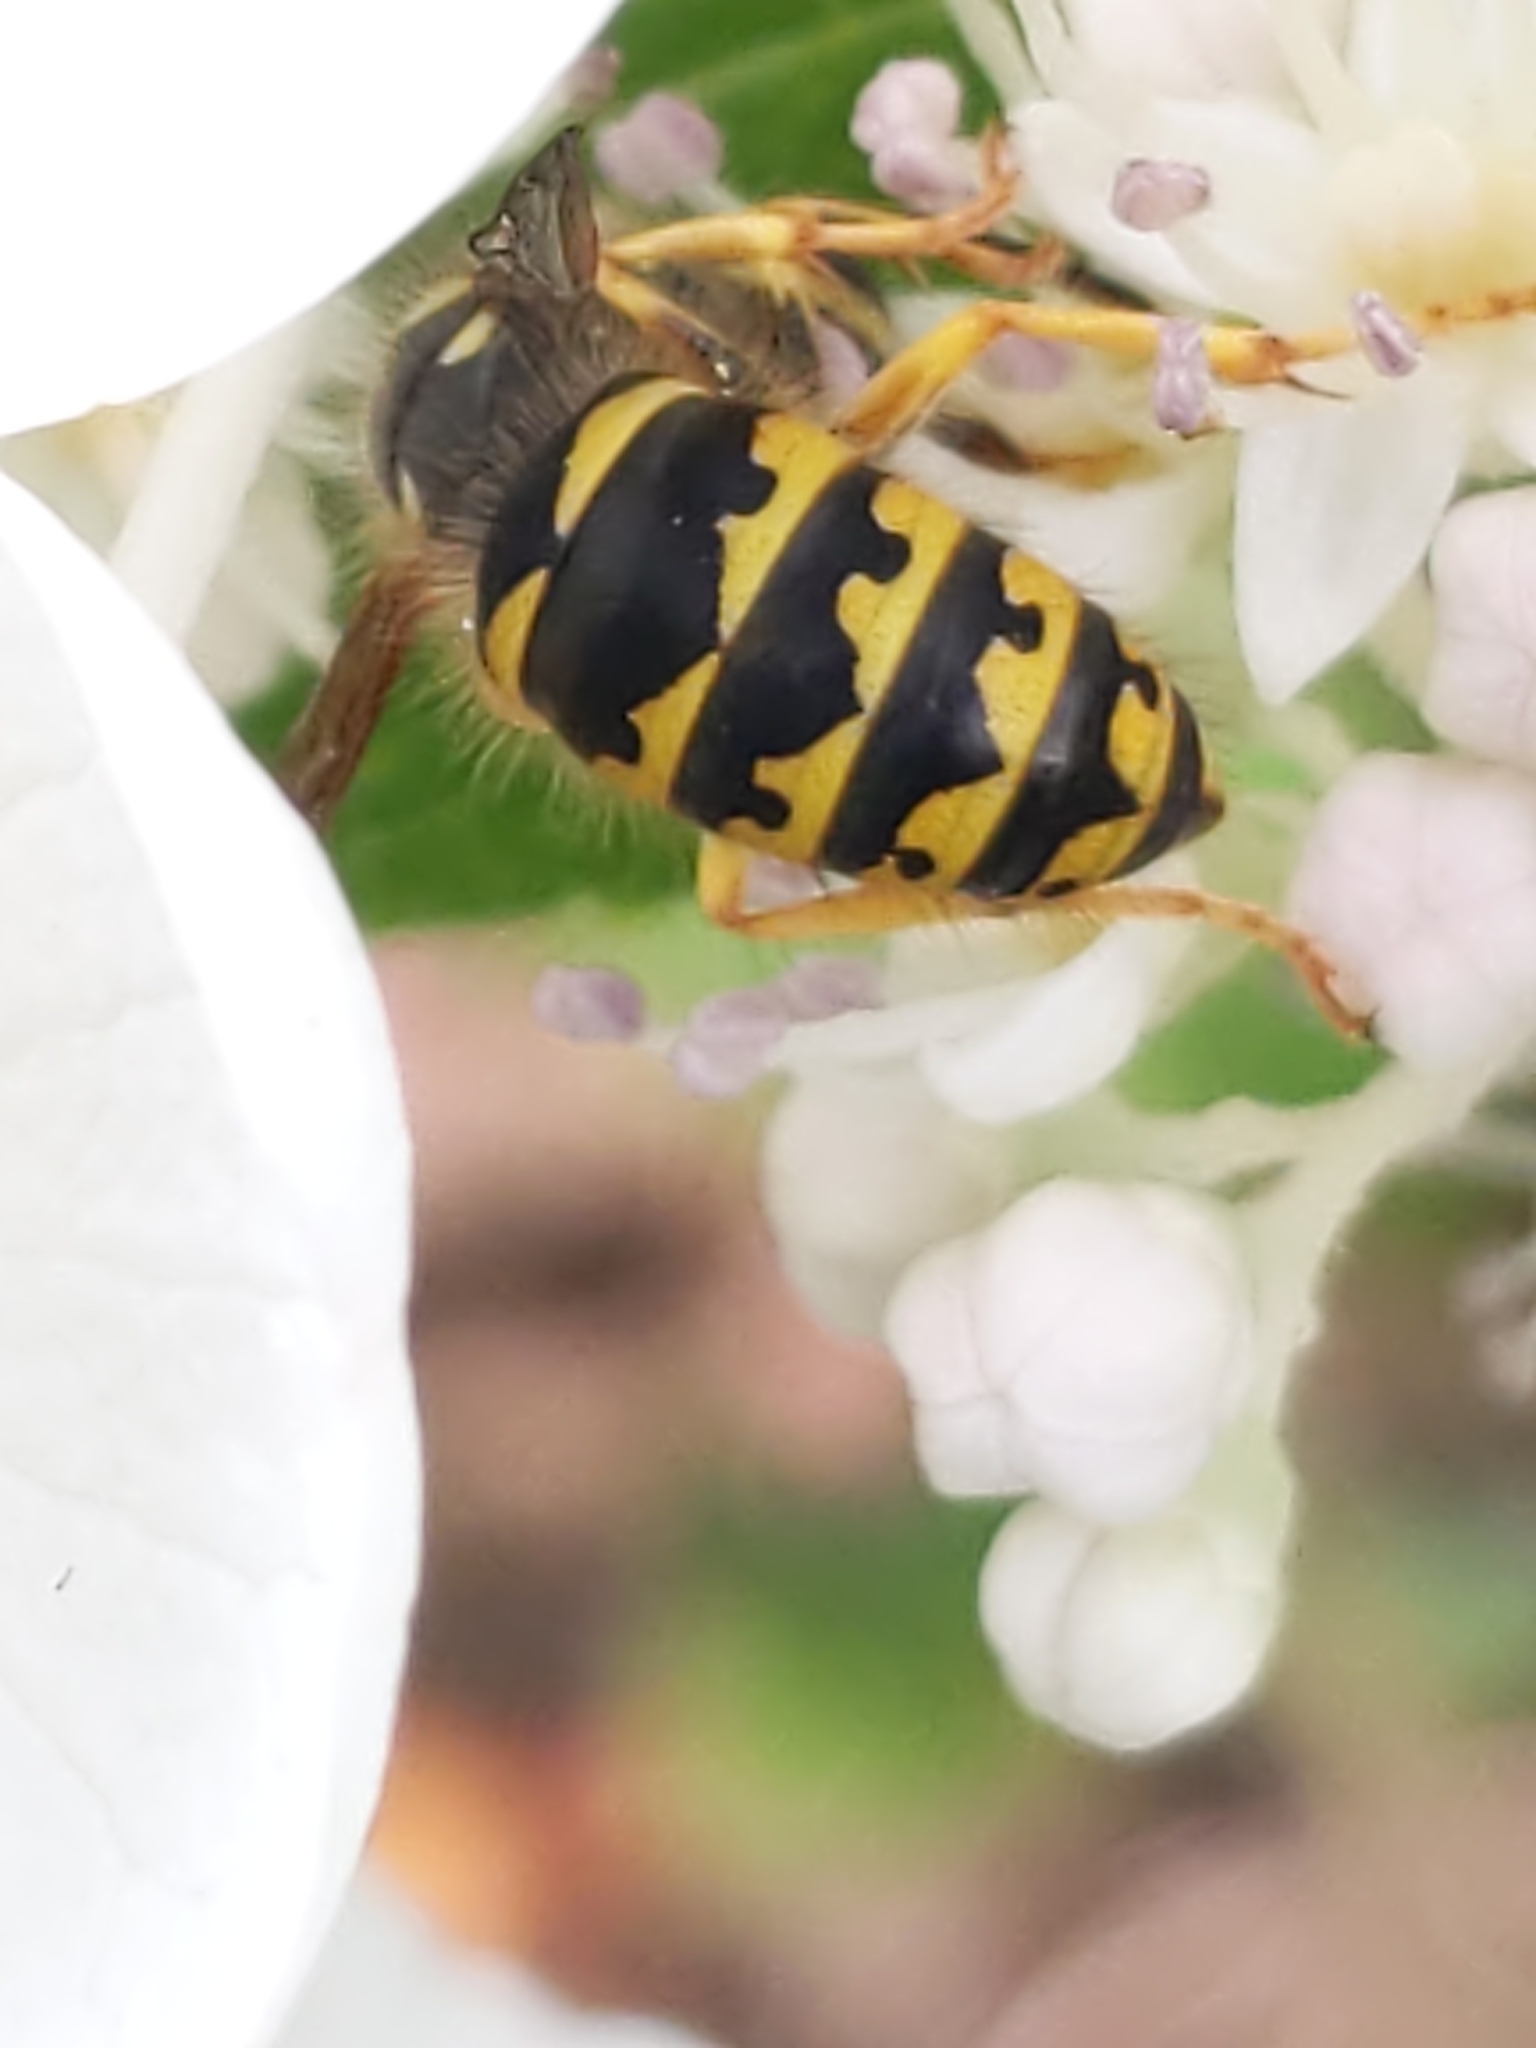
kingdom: Animalia
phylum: Arthropoda
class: Insecta
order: Hymenoptera
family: Vespidae
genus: Dolichovespula
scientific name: Dolichovespula arenaria
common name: Aerial yellowjacket
